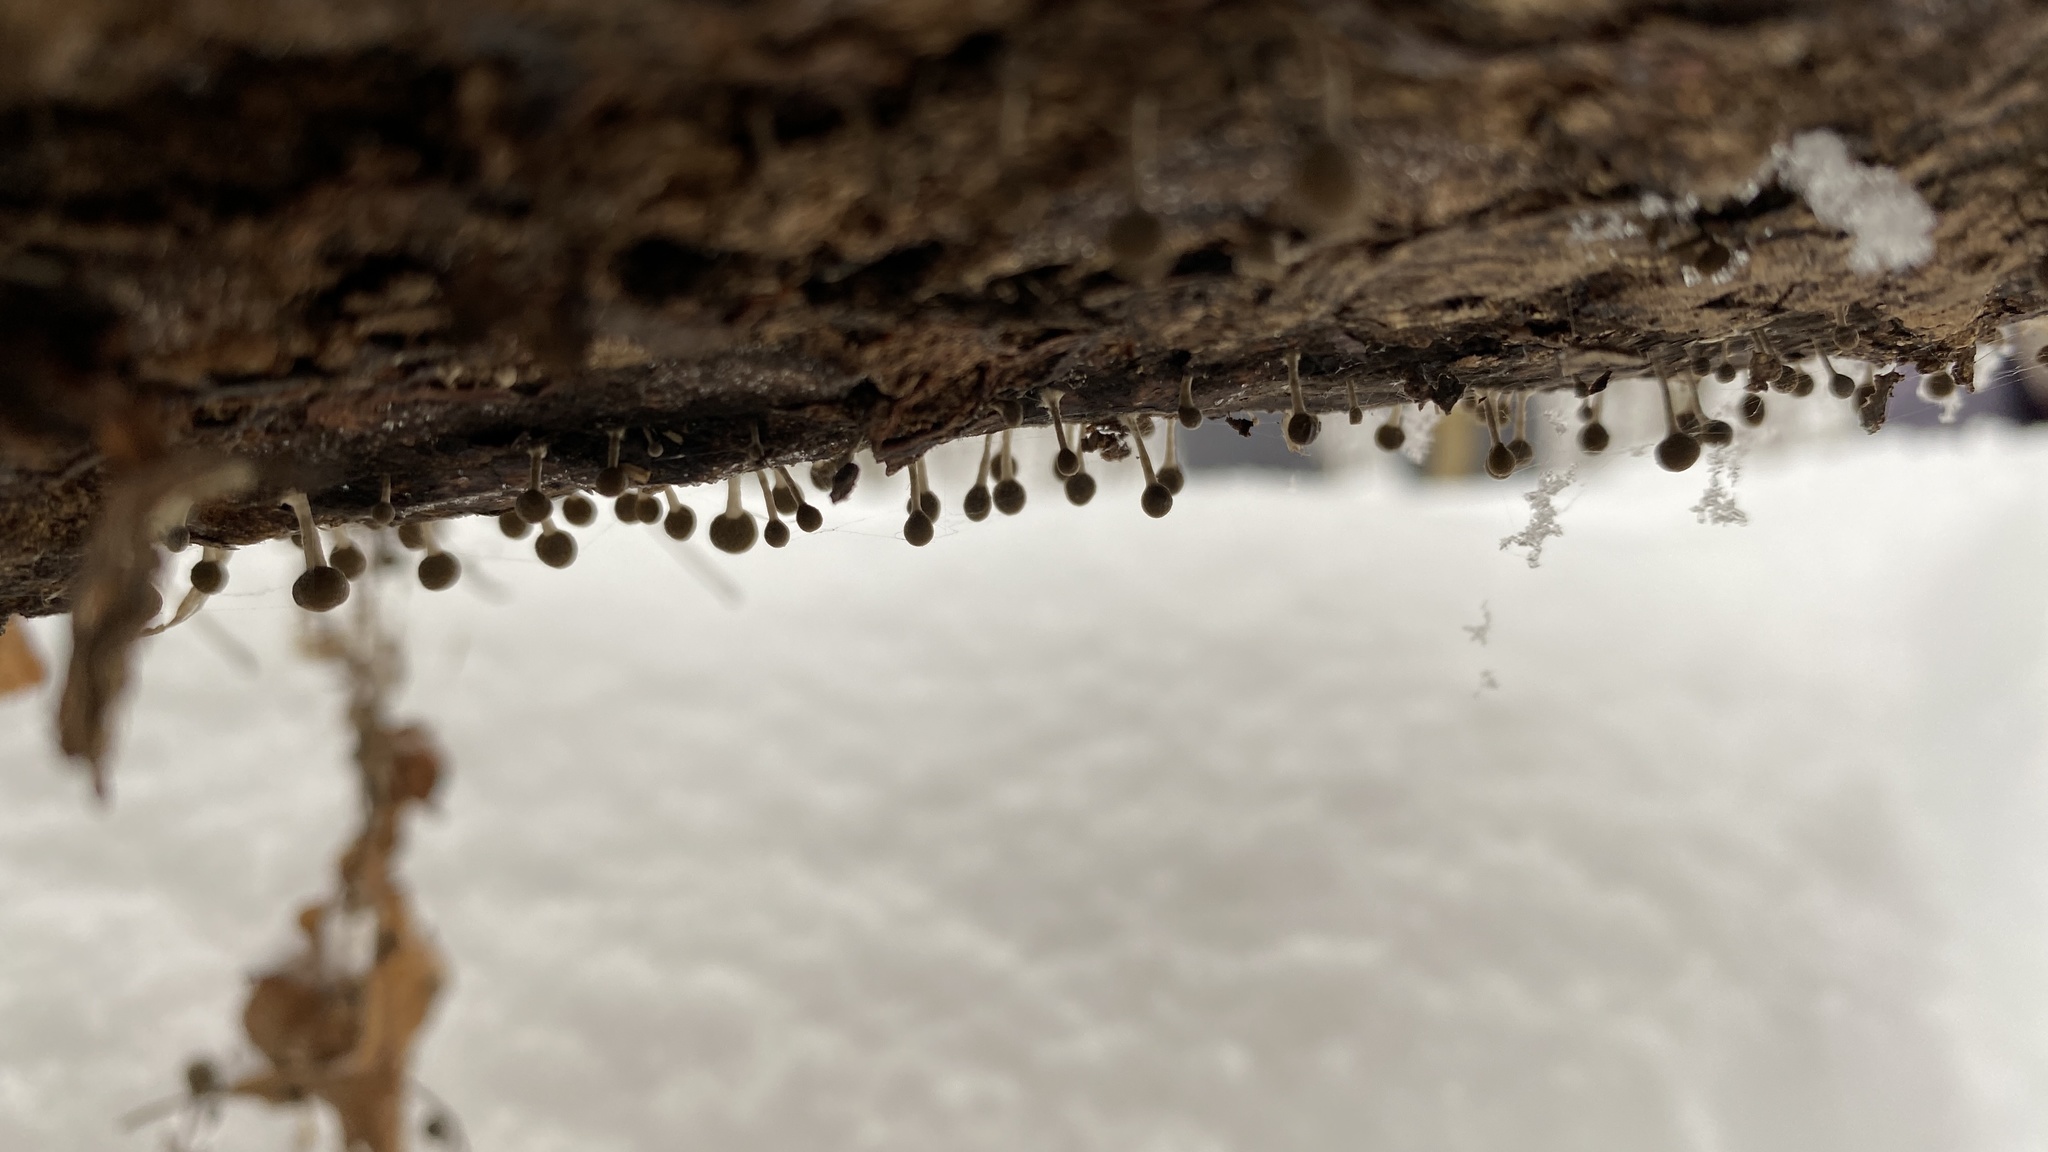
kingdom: Fungi
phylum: Basidiomycota
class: Atractiellomycetes
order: Atractiellales
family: Phleogenaceae
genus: Phleogena
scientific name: Phleogena faginea
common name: Fenugreek stalkball
